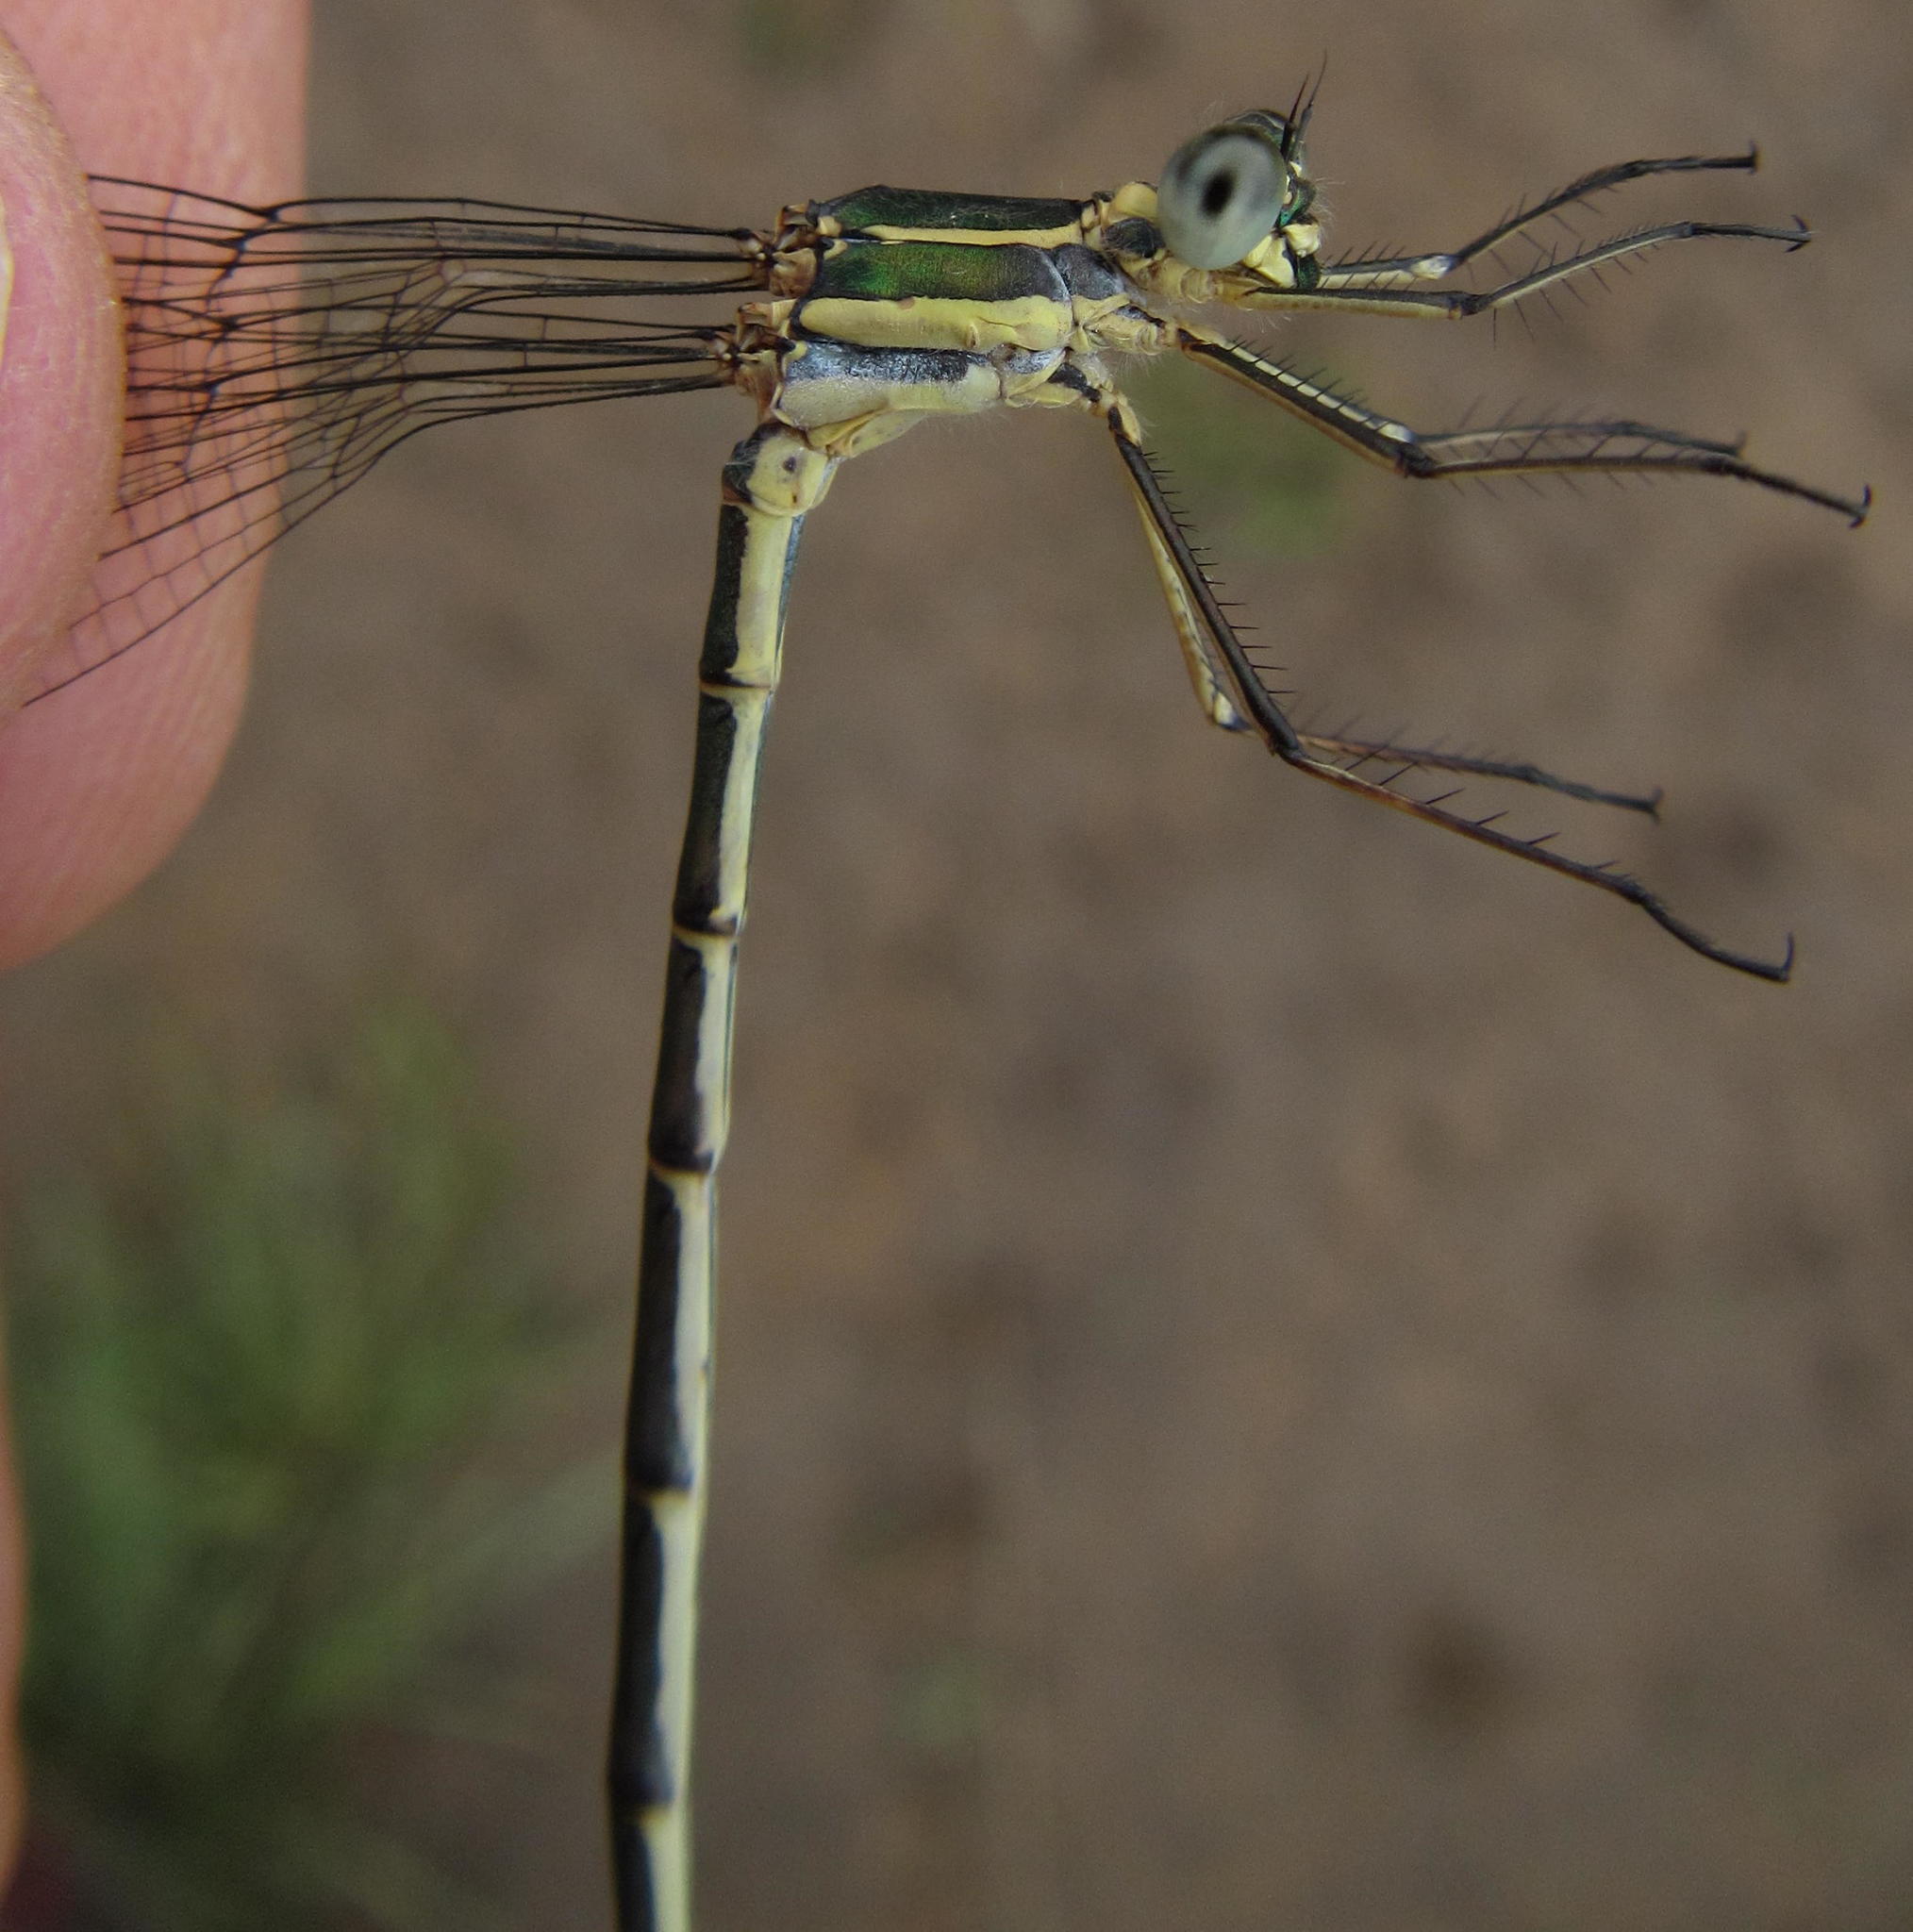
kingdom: Animalia
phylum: Arthropoda
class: Insecta
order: Odonata
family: Synlestidae
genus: Chlorolestes
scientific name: Chlorolestes fasciatus
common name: Mountain malachite
